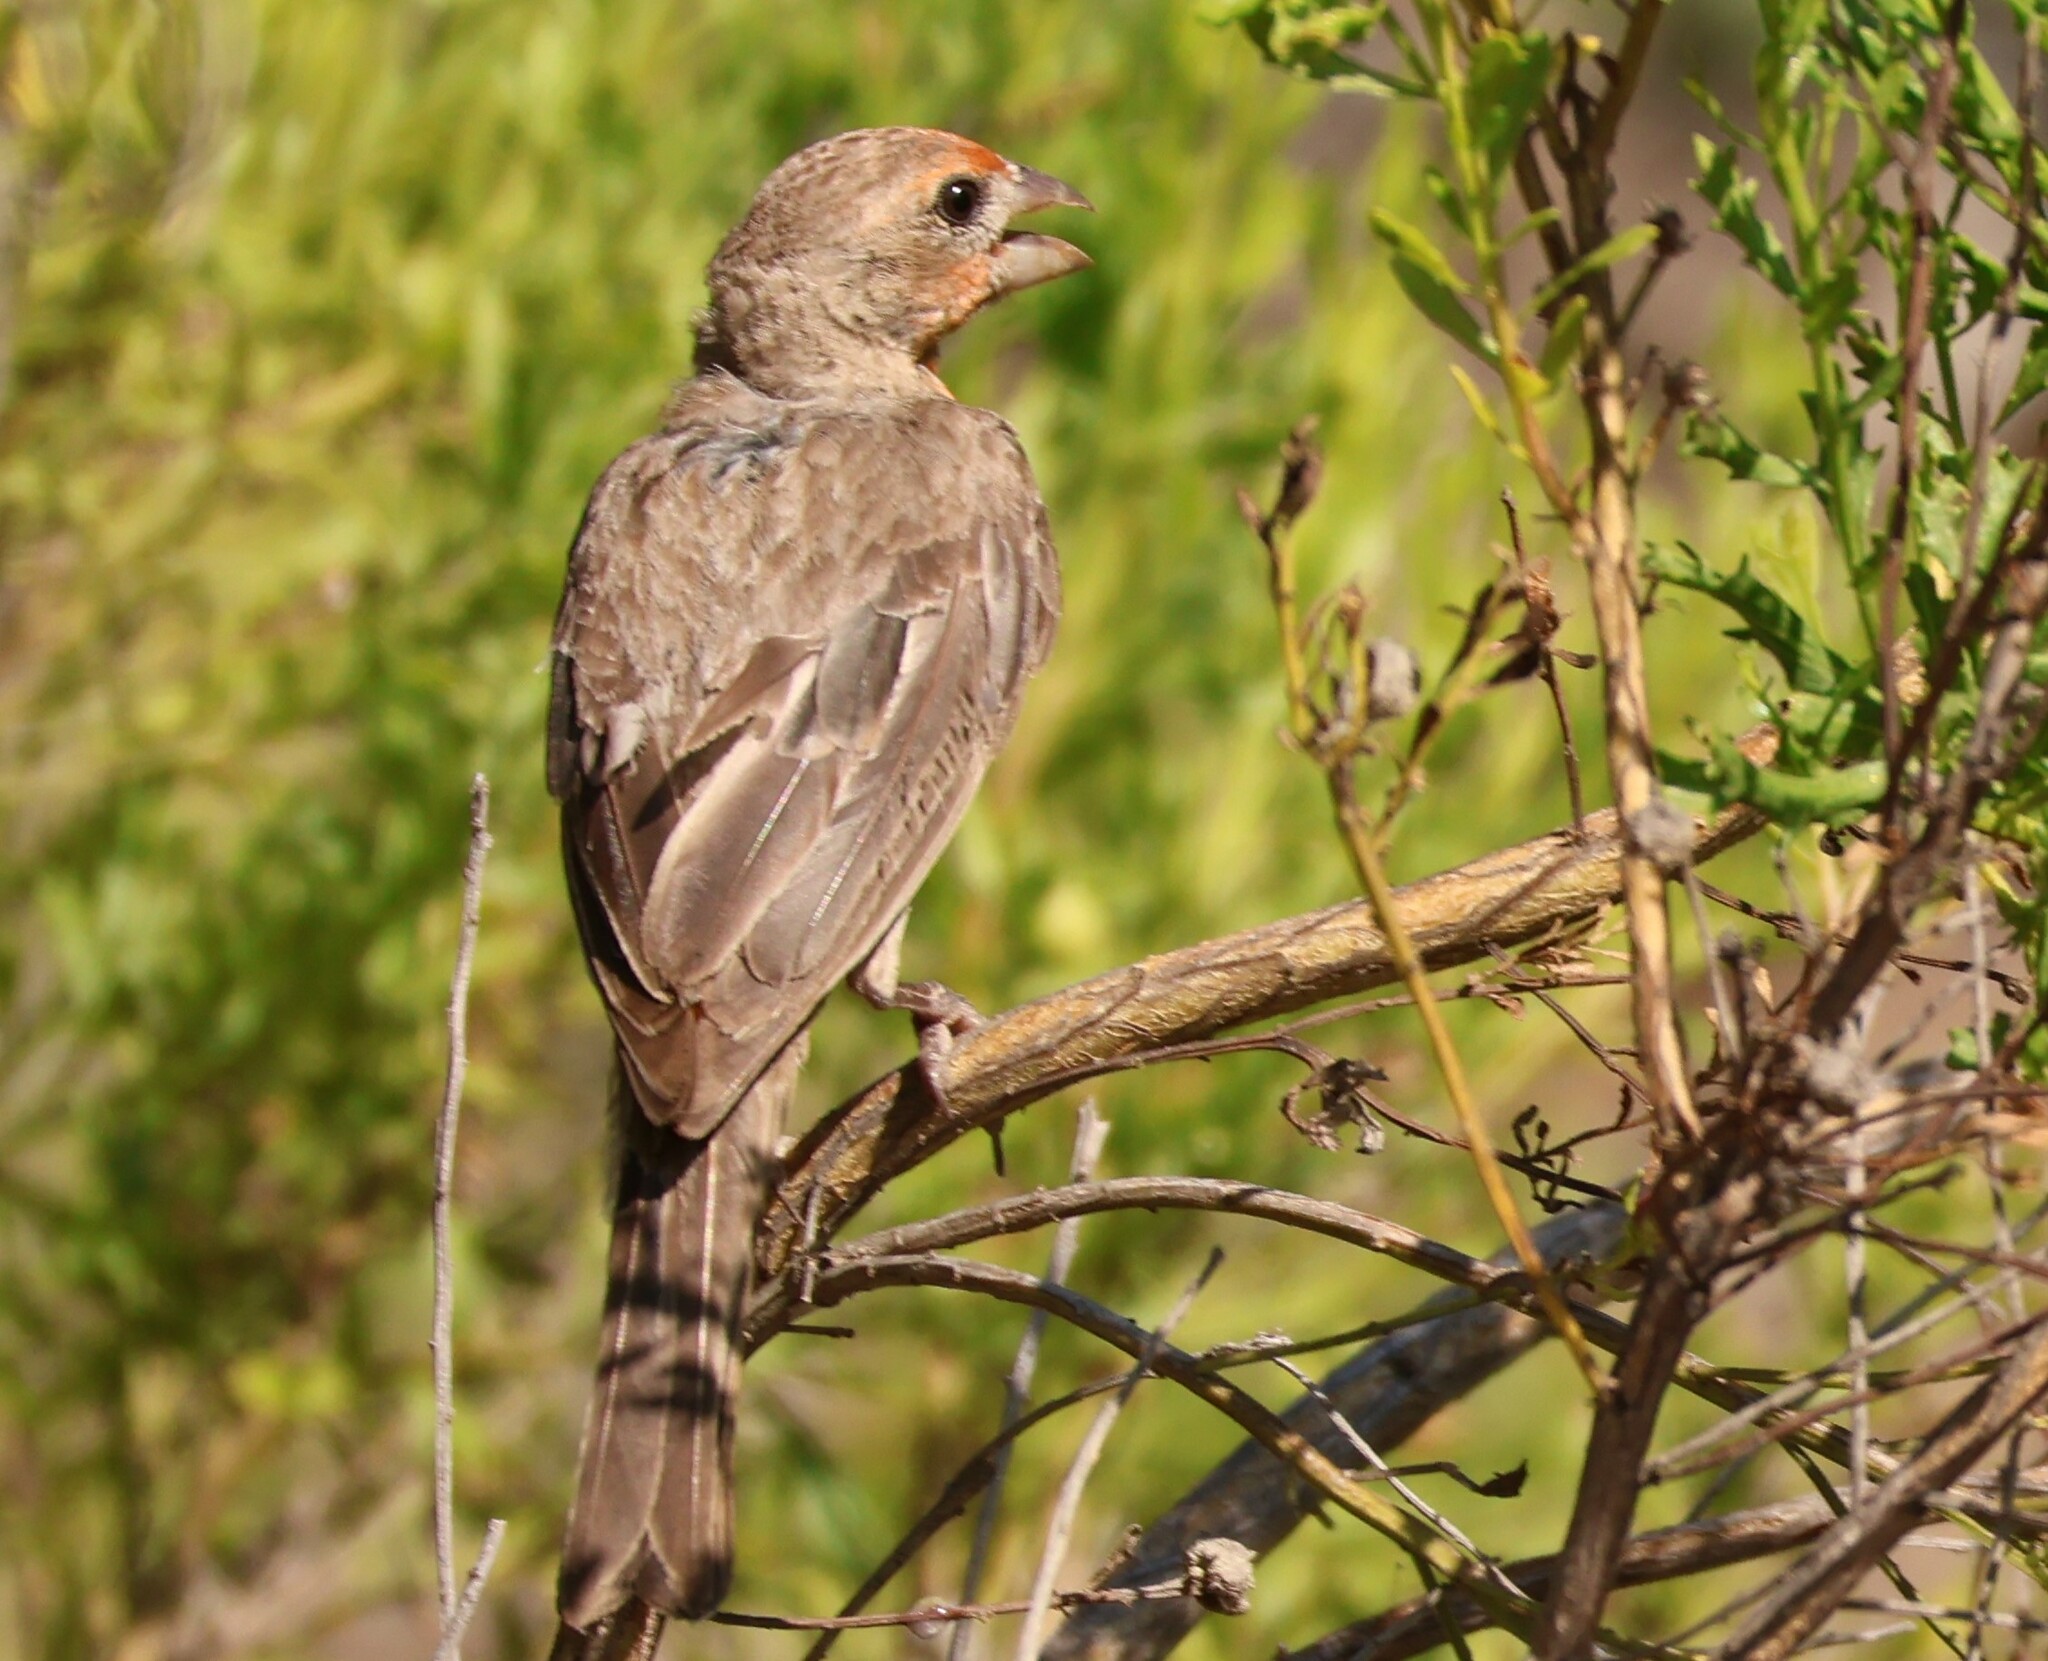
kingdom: Animalia
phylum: Chordata
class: Aves
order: Passeriformes
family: Fringillidae
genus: Haemorhous
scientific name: Haemorhous mexicanus
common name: House finch
